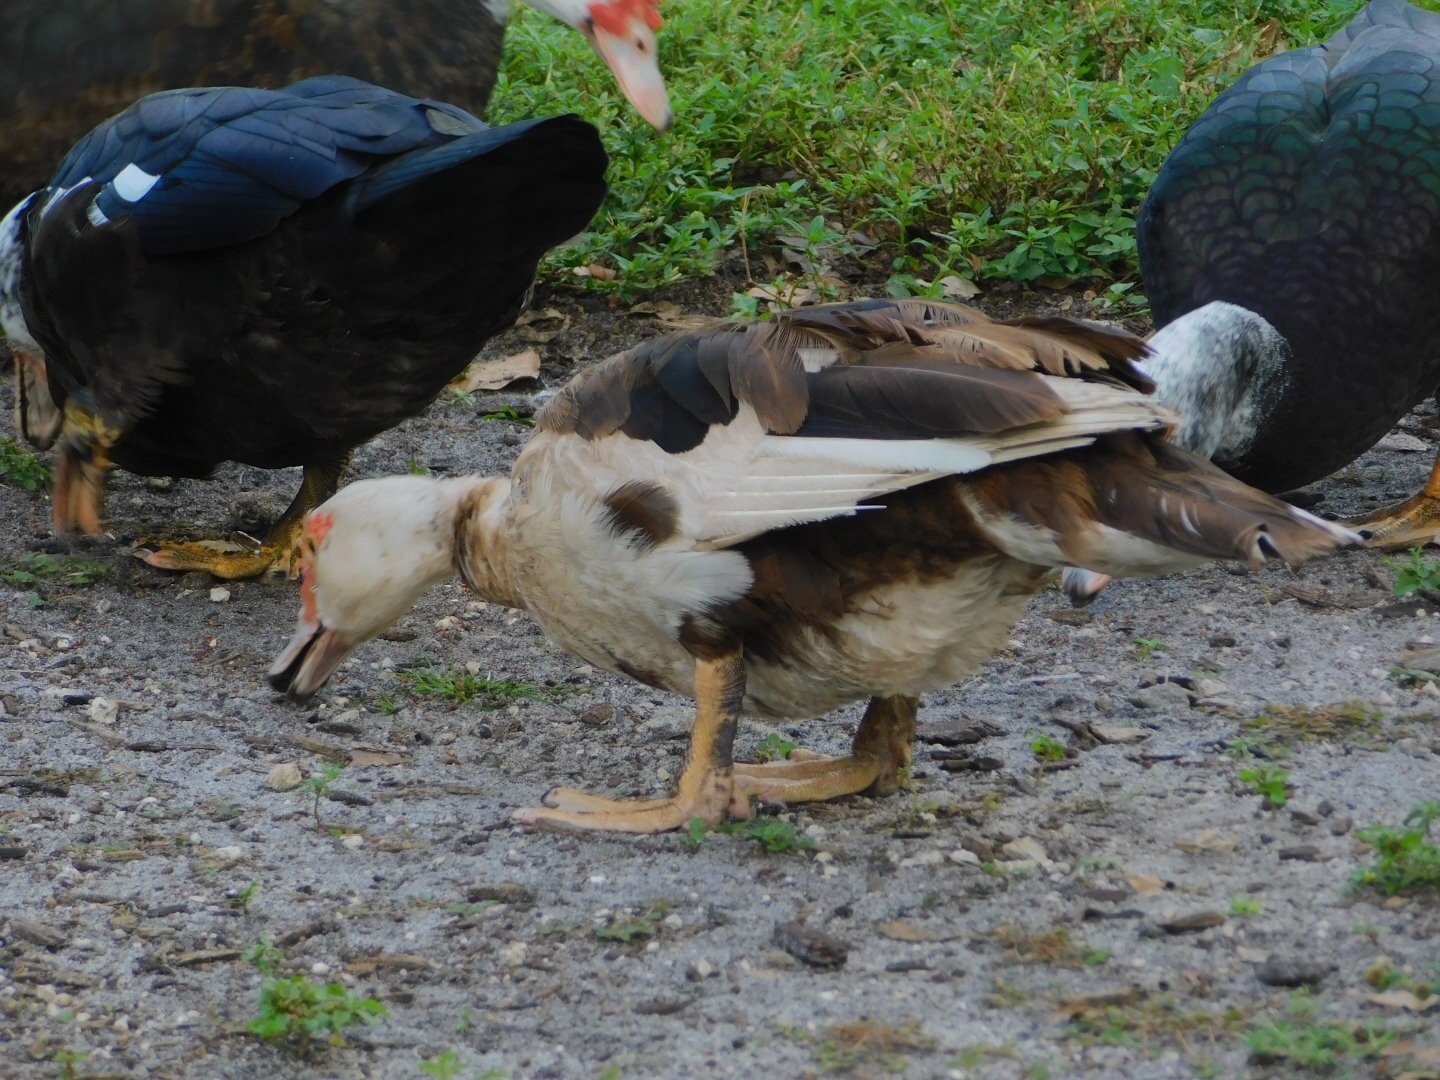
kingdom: Animalia
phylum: Chordata
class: Aves
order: Anseriformes
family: Anatidae
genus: Cairina
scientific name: Cairina moschata
